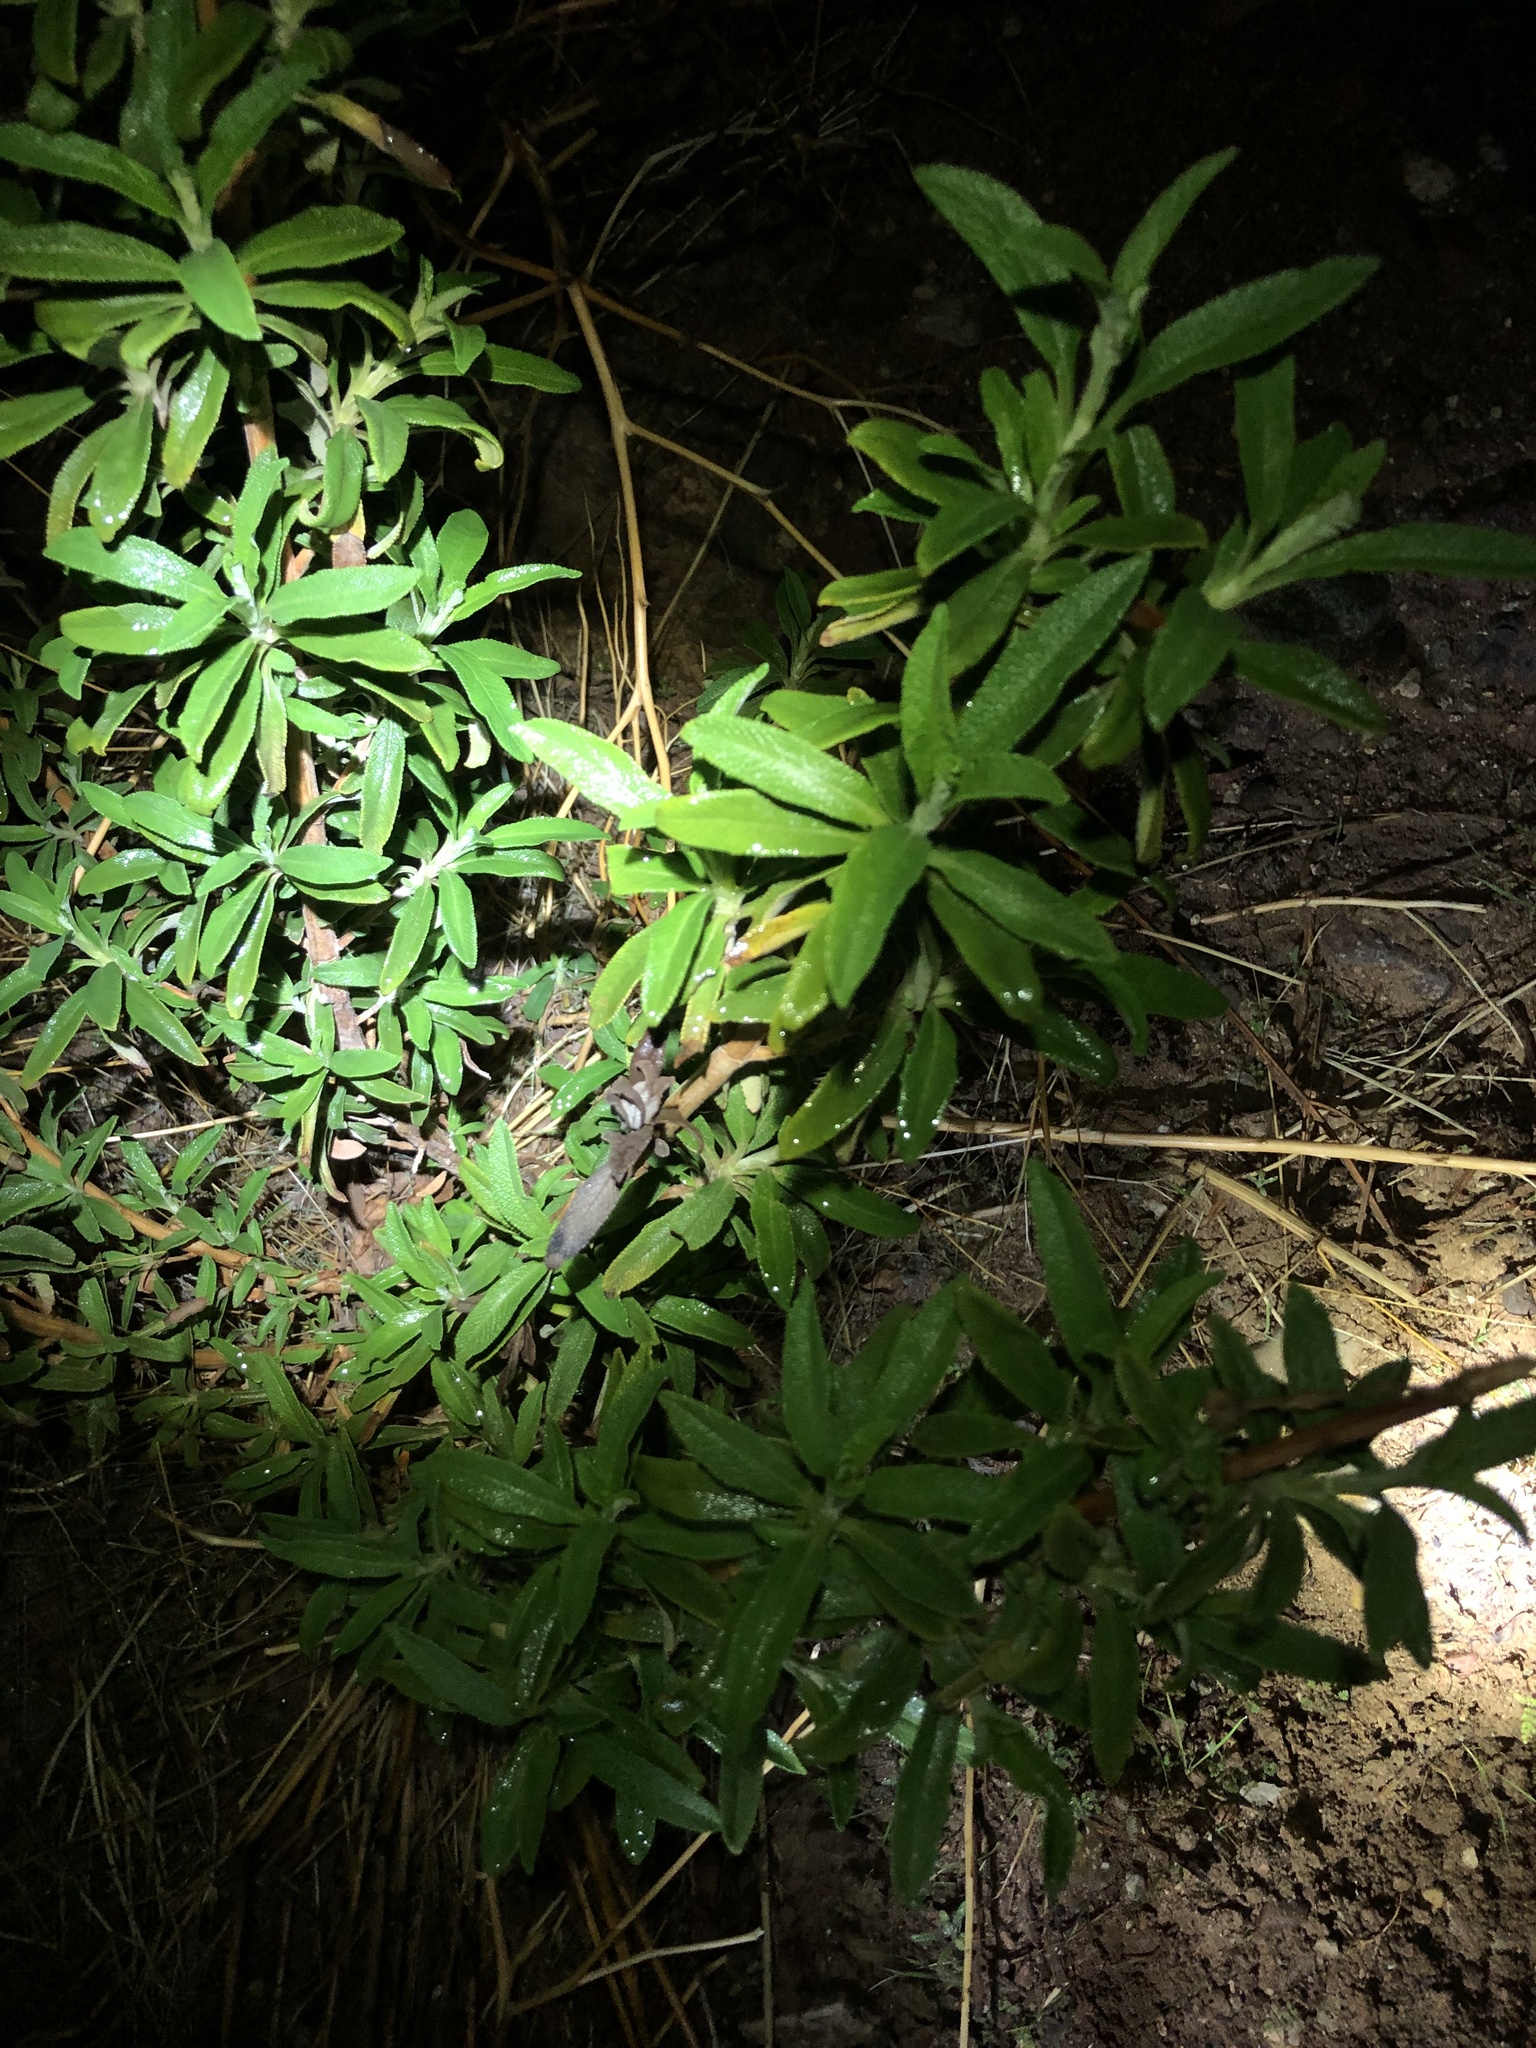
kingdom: Plantae
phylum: Tracheophyta
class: Magnoliopsida
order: Lamiales
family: Lamiaceae
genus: Salvia
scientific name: Salvia mellifera
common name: Black sage
